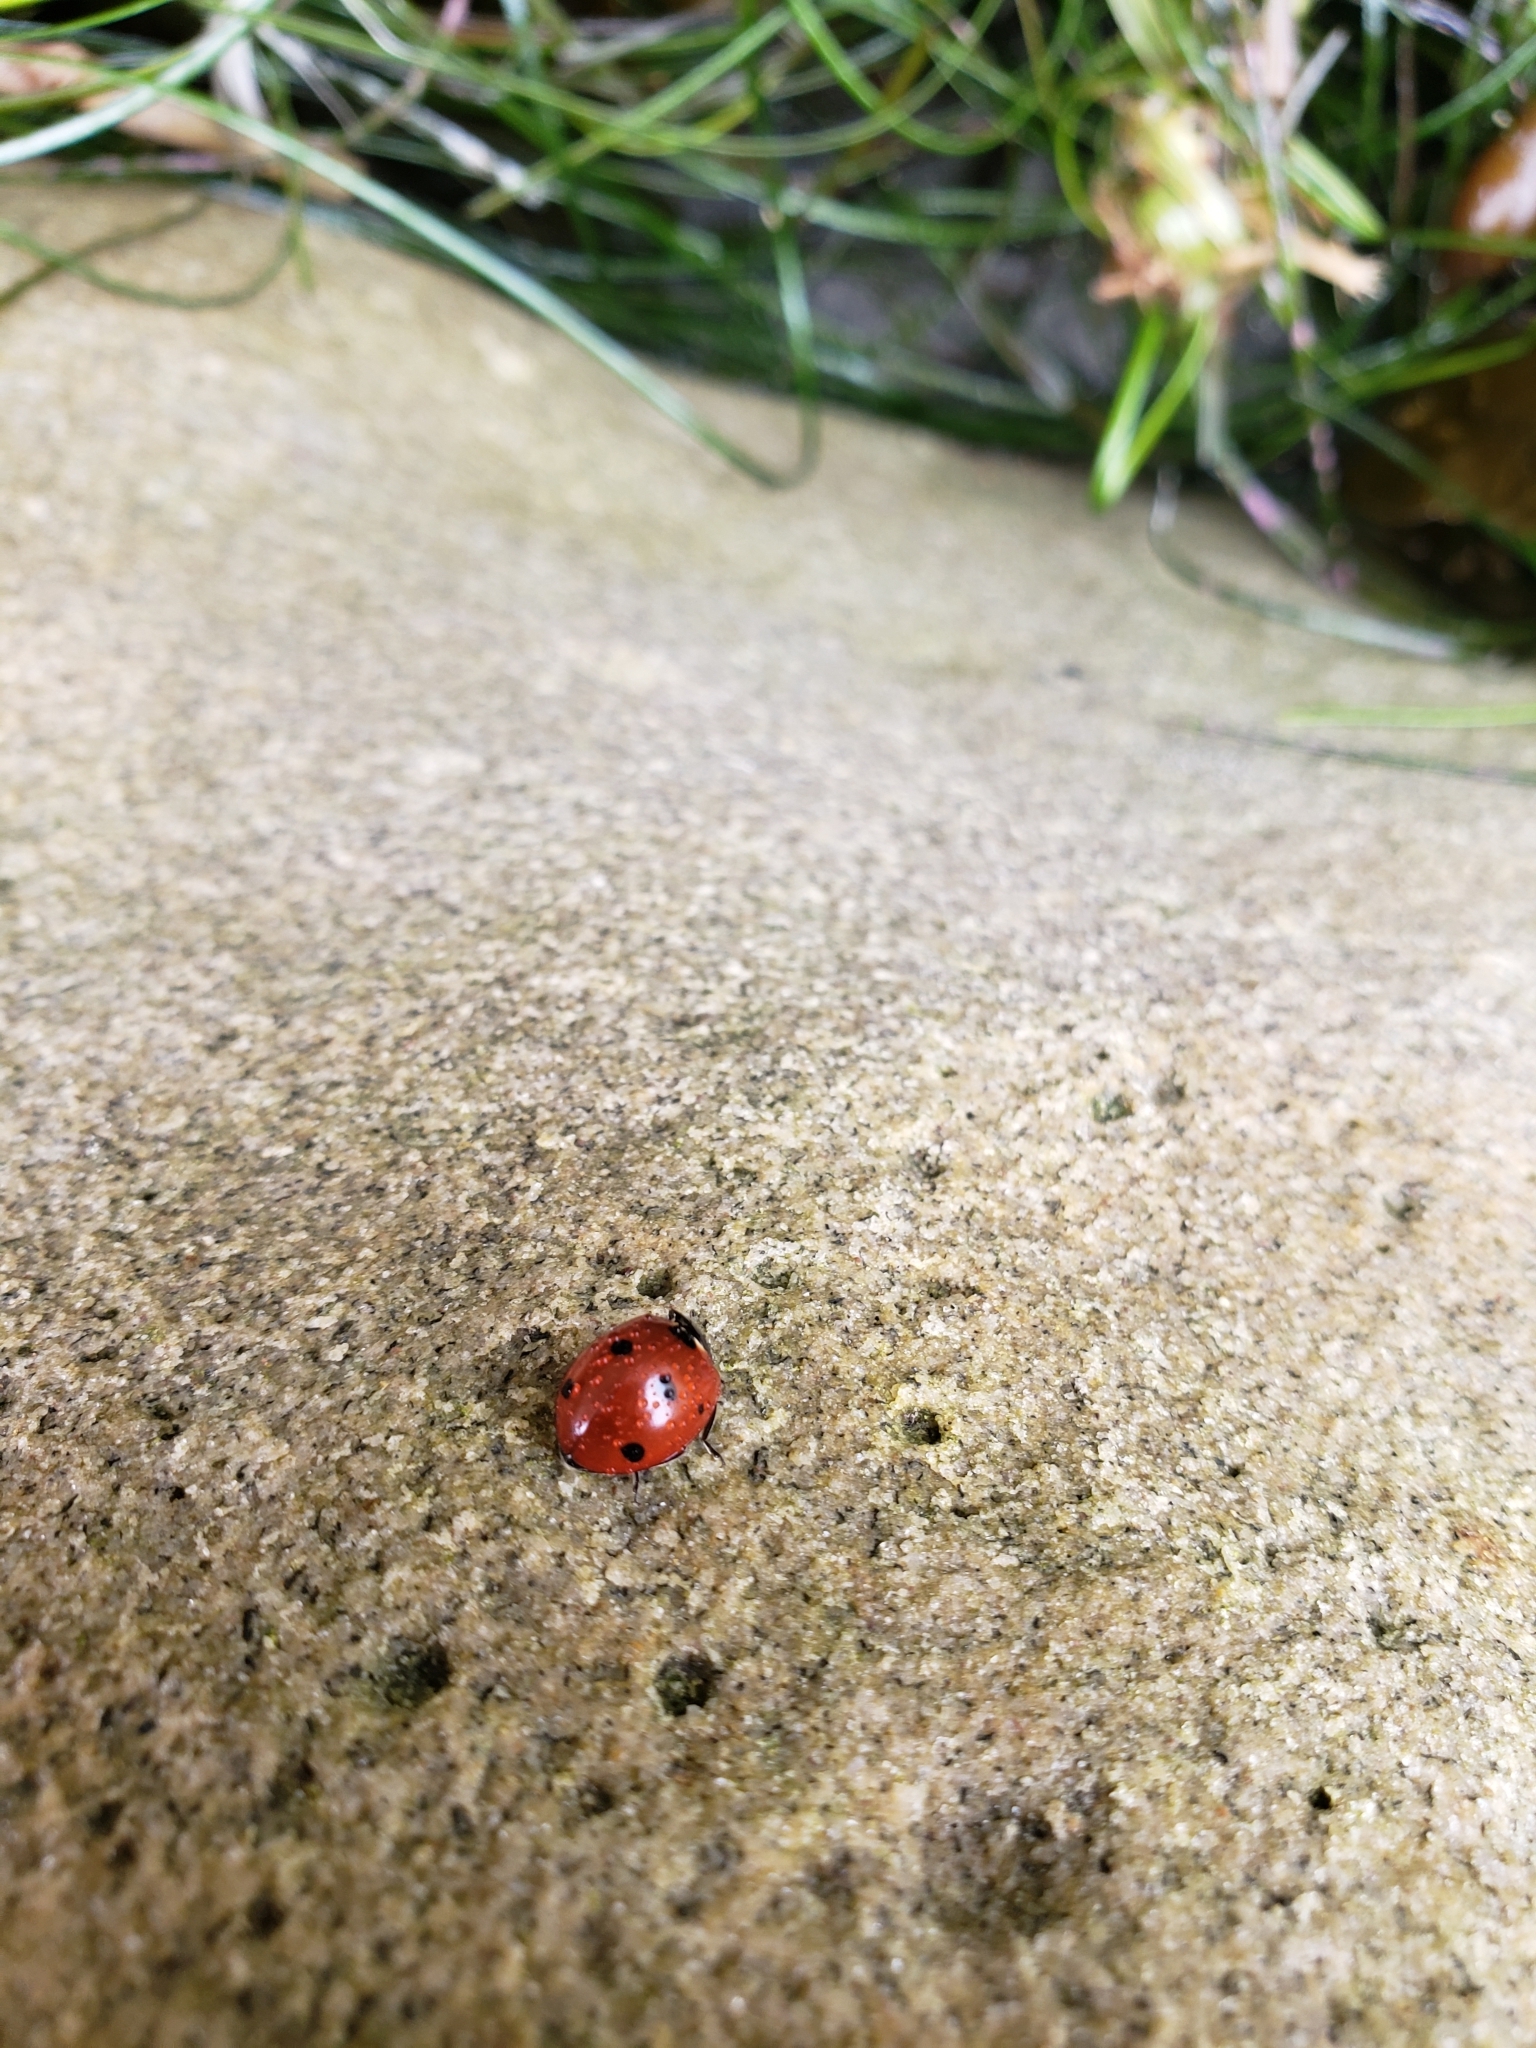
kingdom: Animalia
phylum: Arthropoda
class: Insecta
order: Coleoptera
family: Coccinellidae
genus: Coccinella
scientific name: Coccinella septempunctata
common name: Sevenspotted lady beetle
